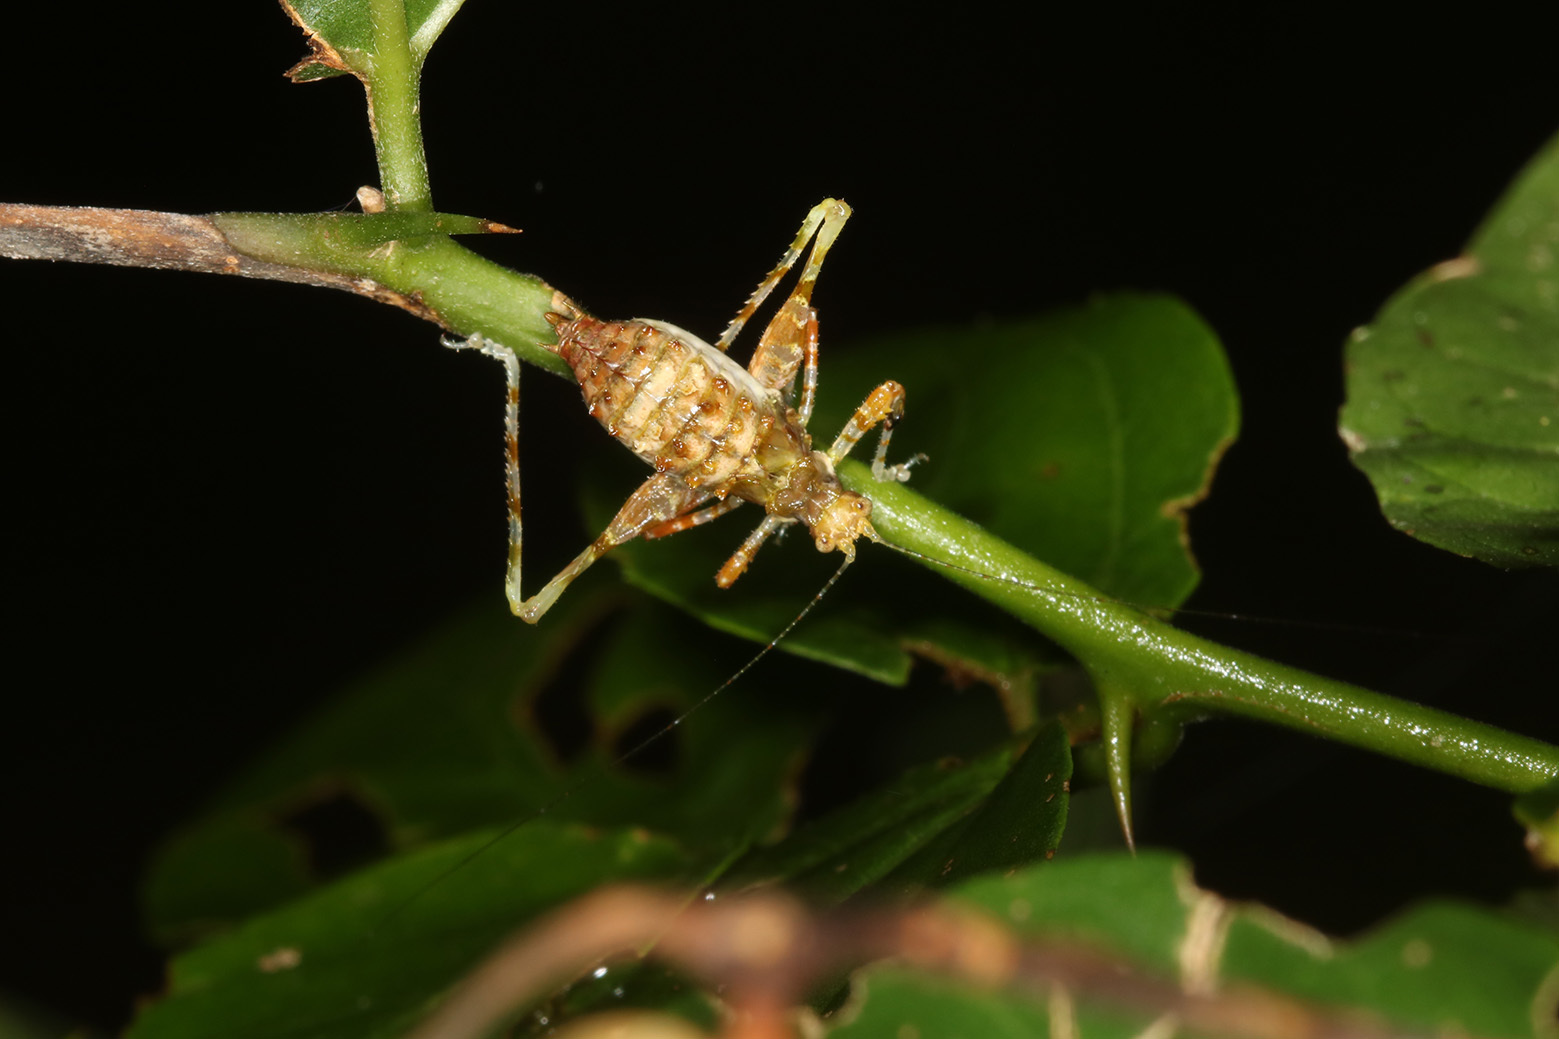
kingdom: Animalia
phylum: Arthropoda
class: Insecta
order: Orthoptera
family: Tettigoniidae
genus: Pycnopalpa
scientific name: Pycnopalpa bicordata
